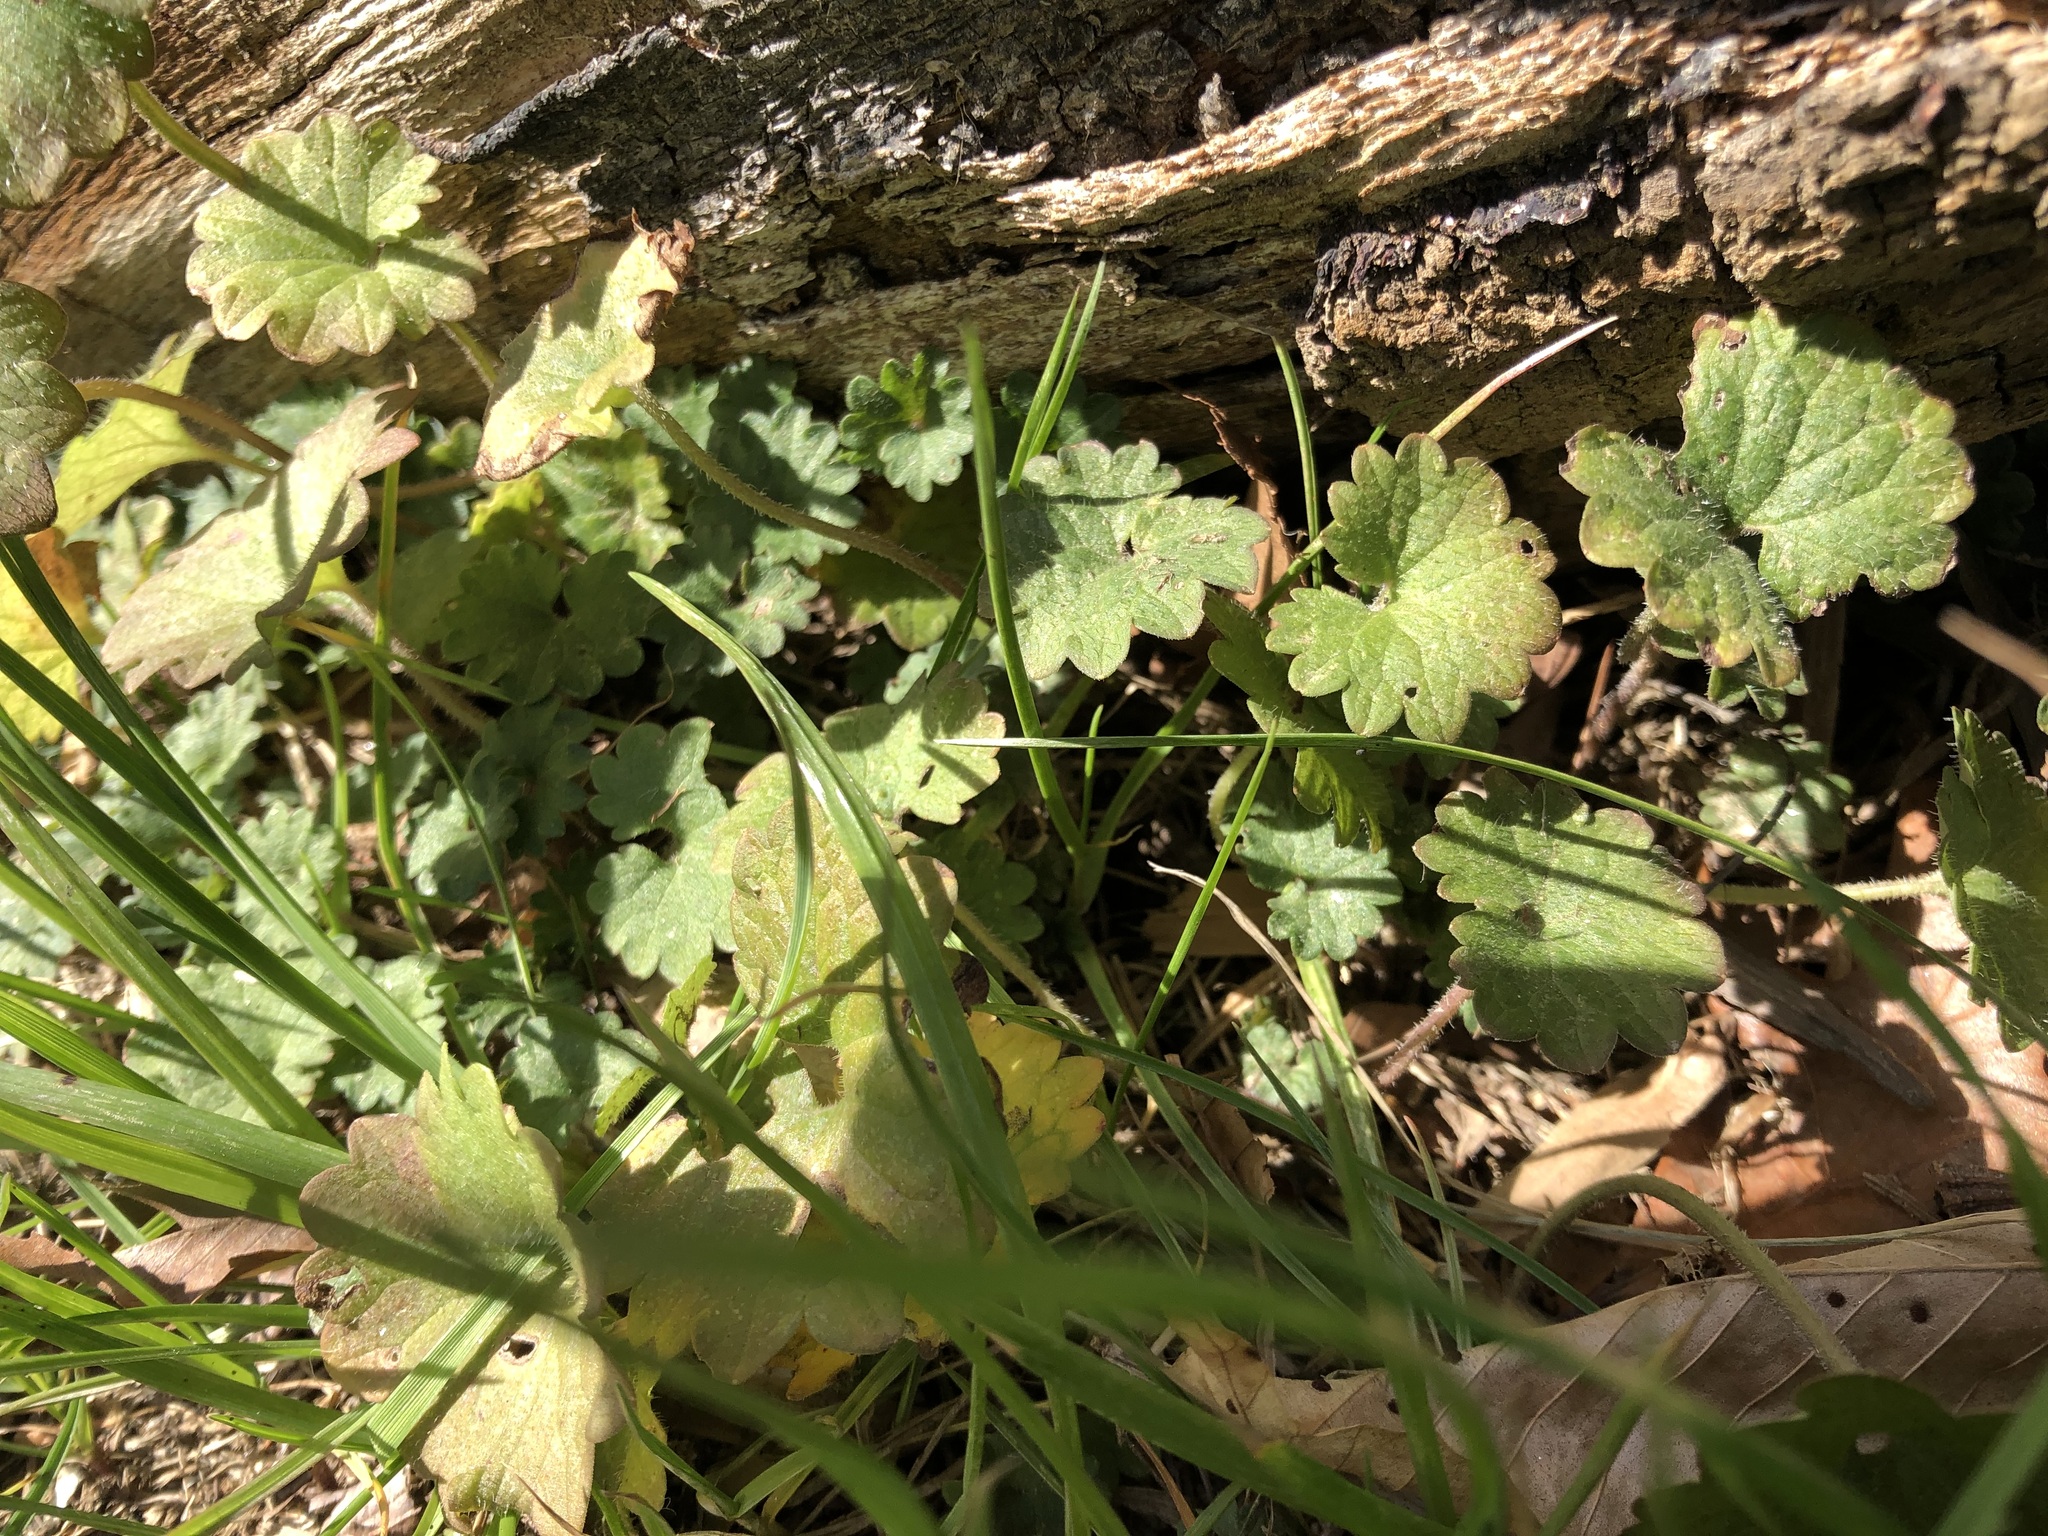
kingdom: Plantae
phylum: Tracheophyta
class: Magnoliopsida
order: Lamiales
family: Lamiaceae
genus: Glechoma
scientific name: Glechoma hederacea
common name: Ground ivy
